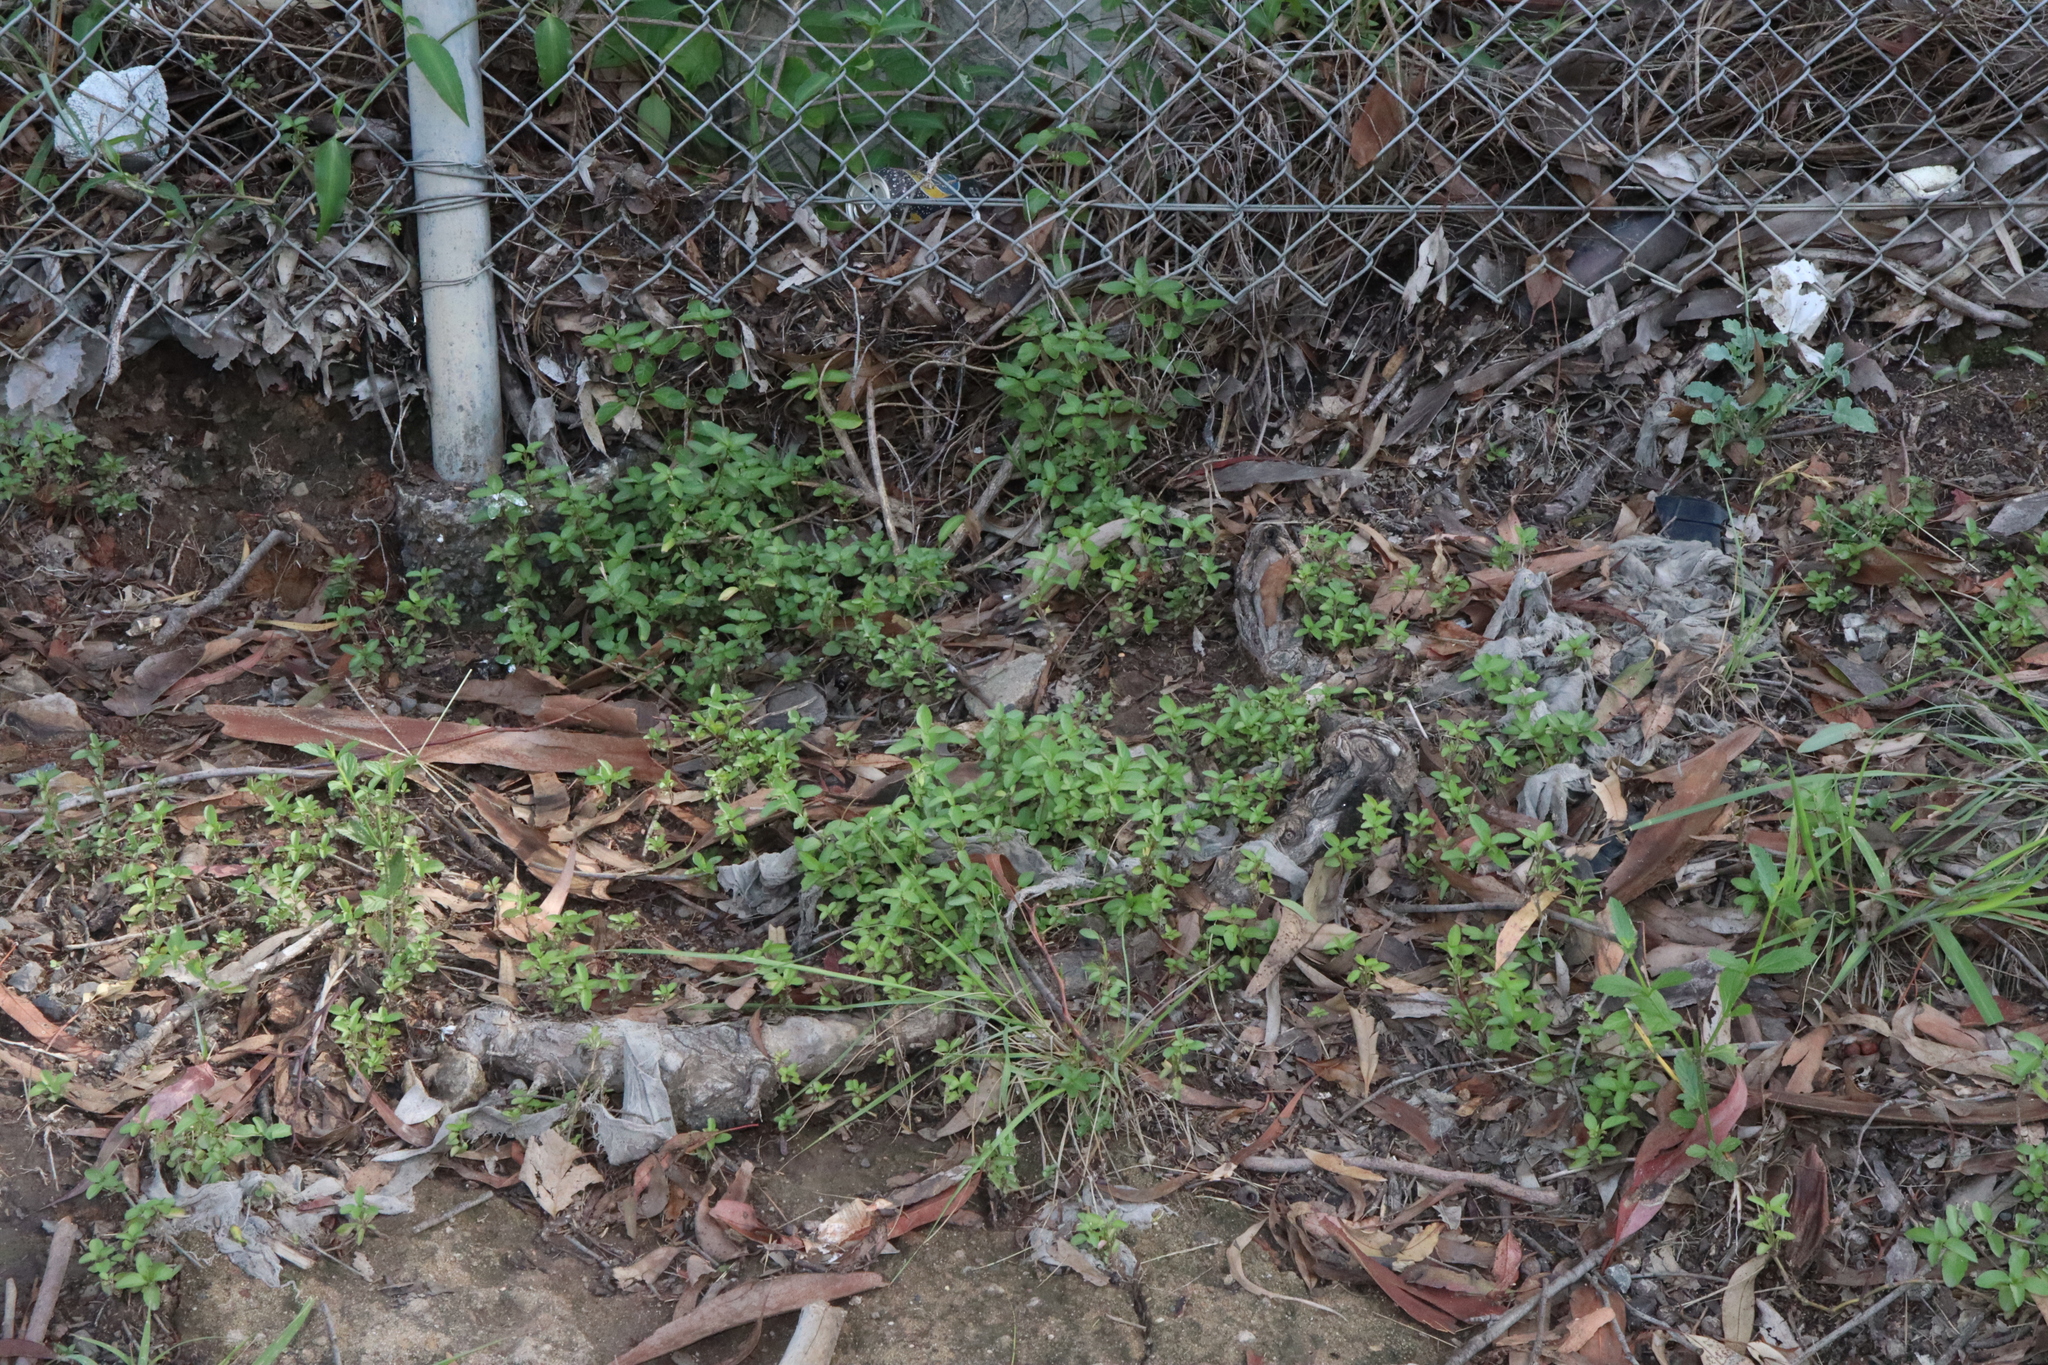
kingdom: Plantae
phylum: Tracheophyta
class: Magnoliopsida
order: Lamiales
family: Acanthaceae
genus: Hygrophila
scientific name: Hygrophila erecta
